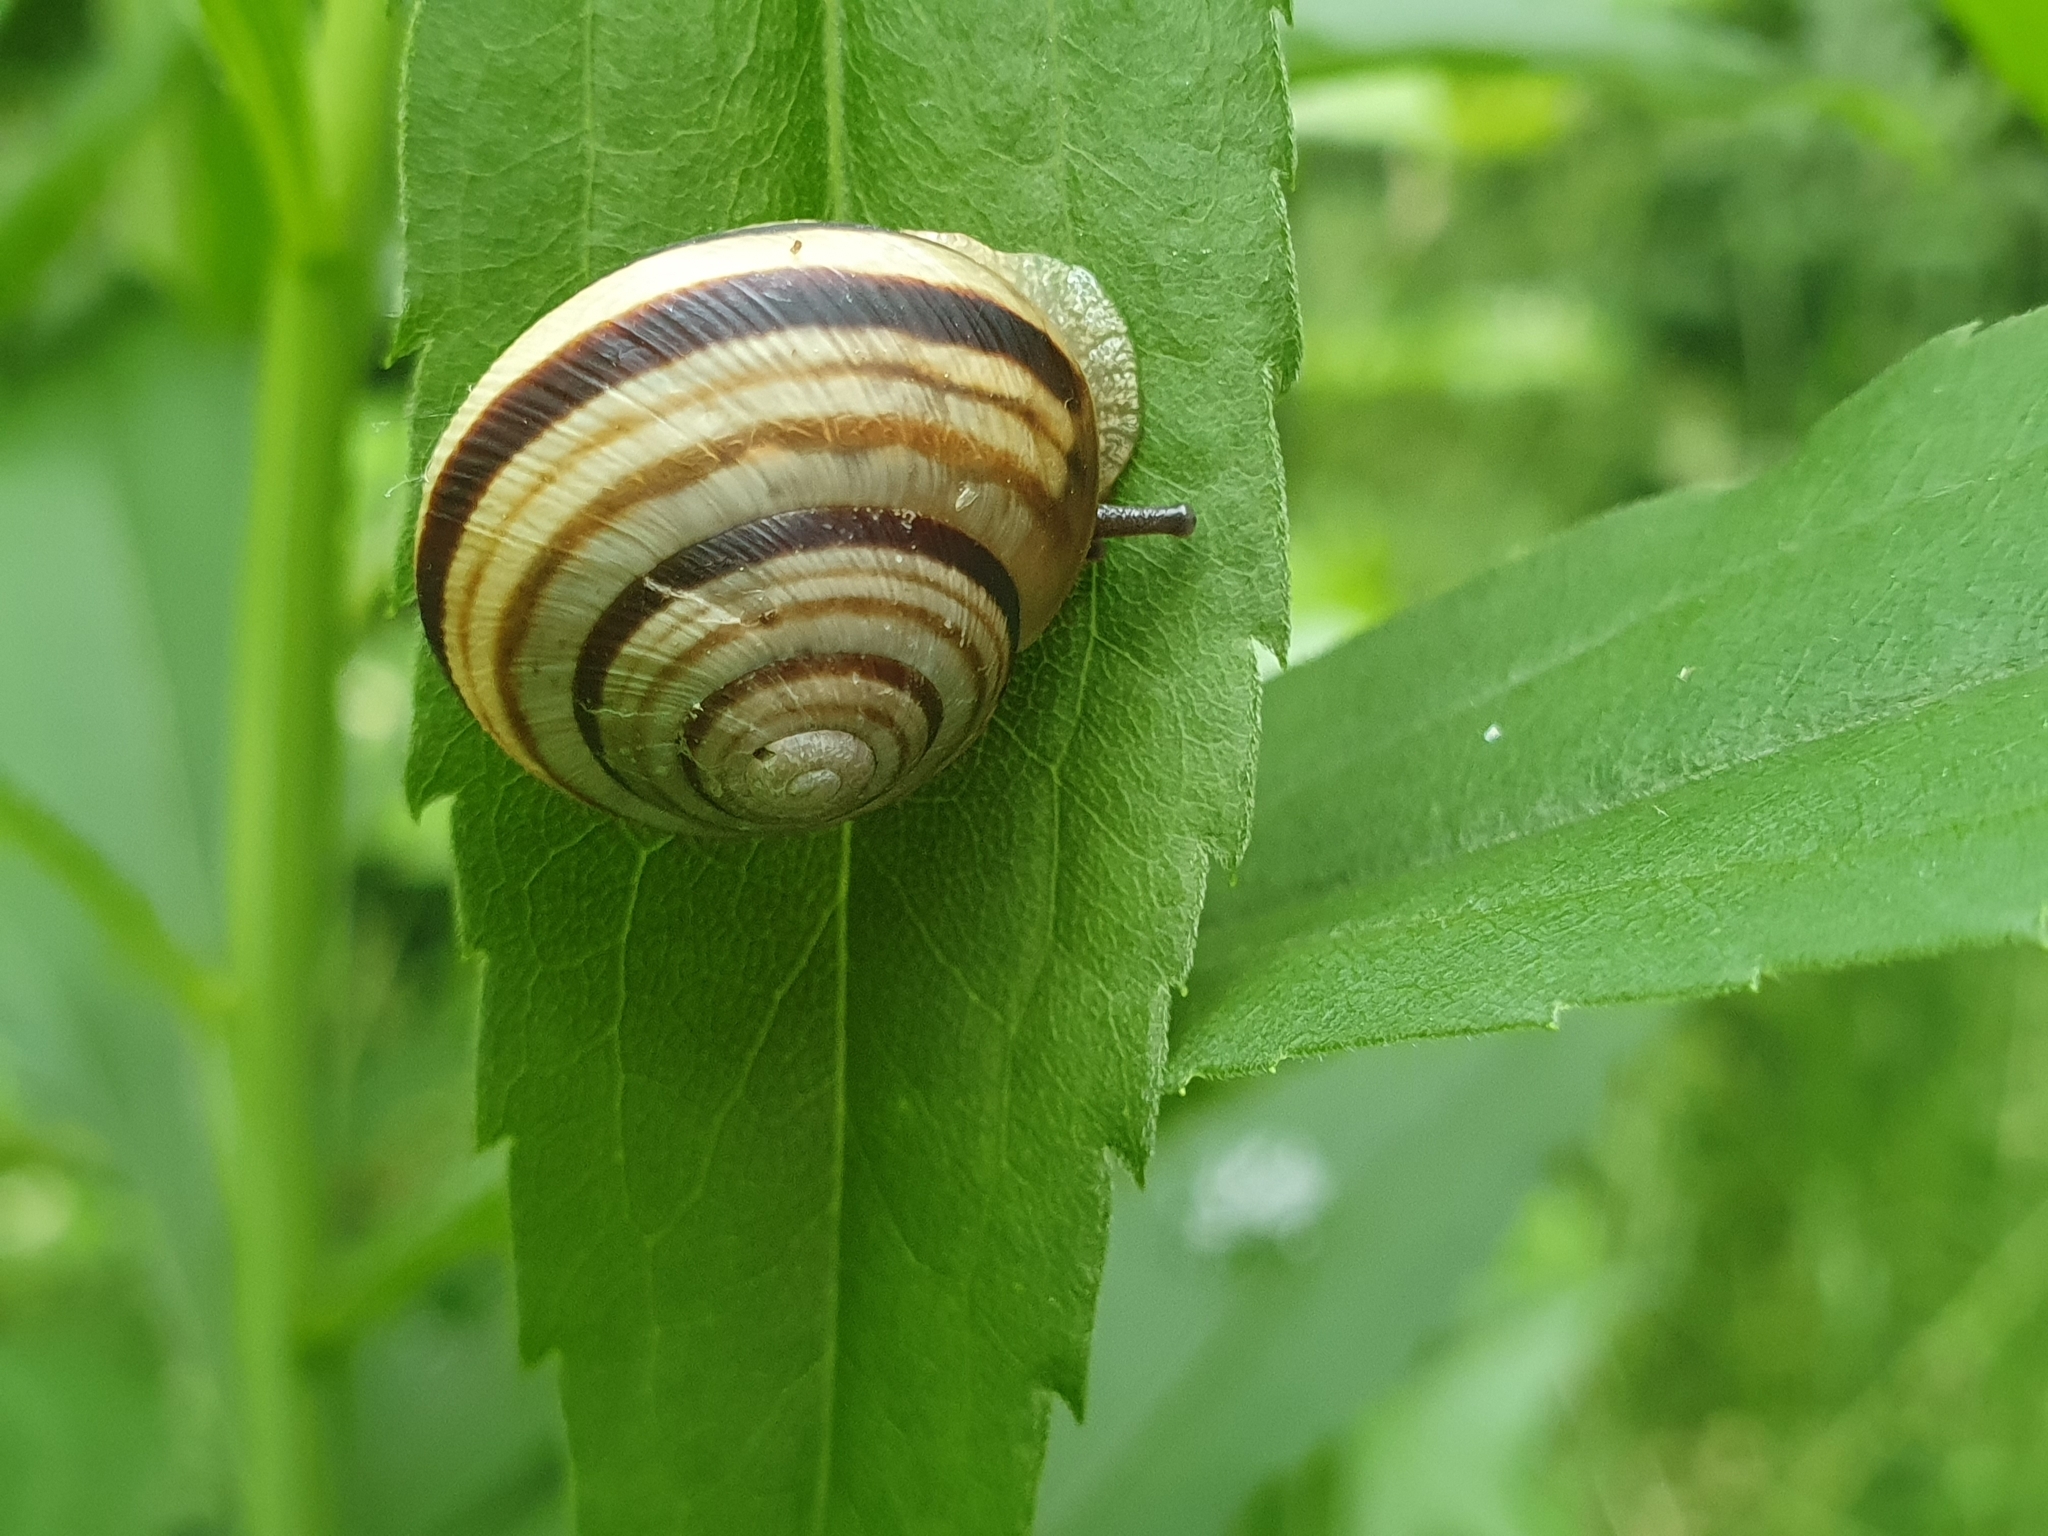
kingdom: Animalia
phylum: Mollusca
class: Gastropoda
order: Stylommatophora
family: Helicidae
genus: Caucasotachea
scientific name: Caucasotachea vindobonensis
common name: European helicid land snail
